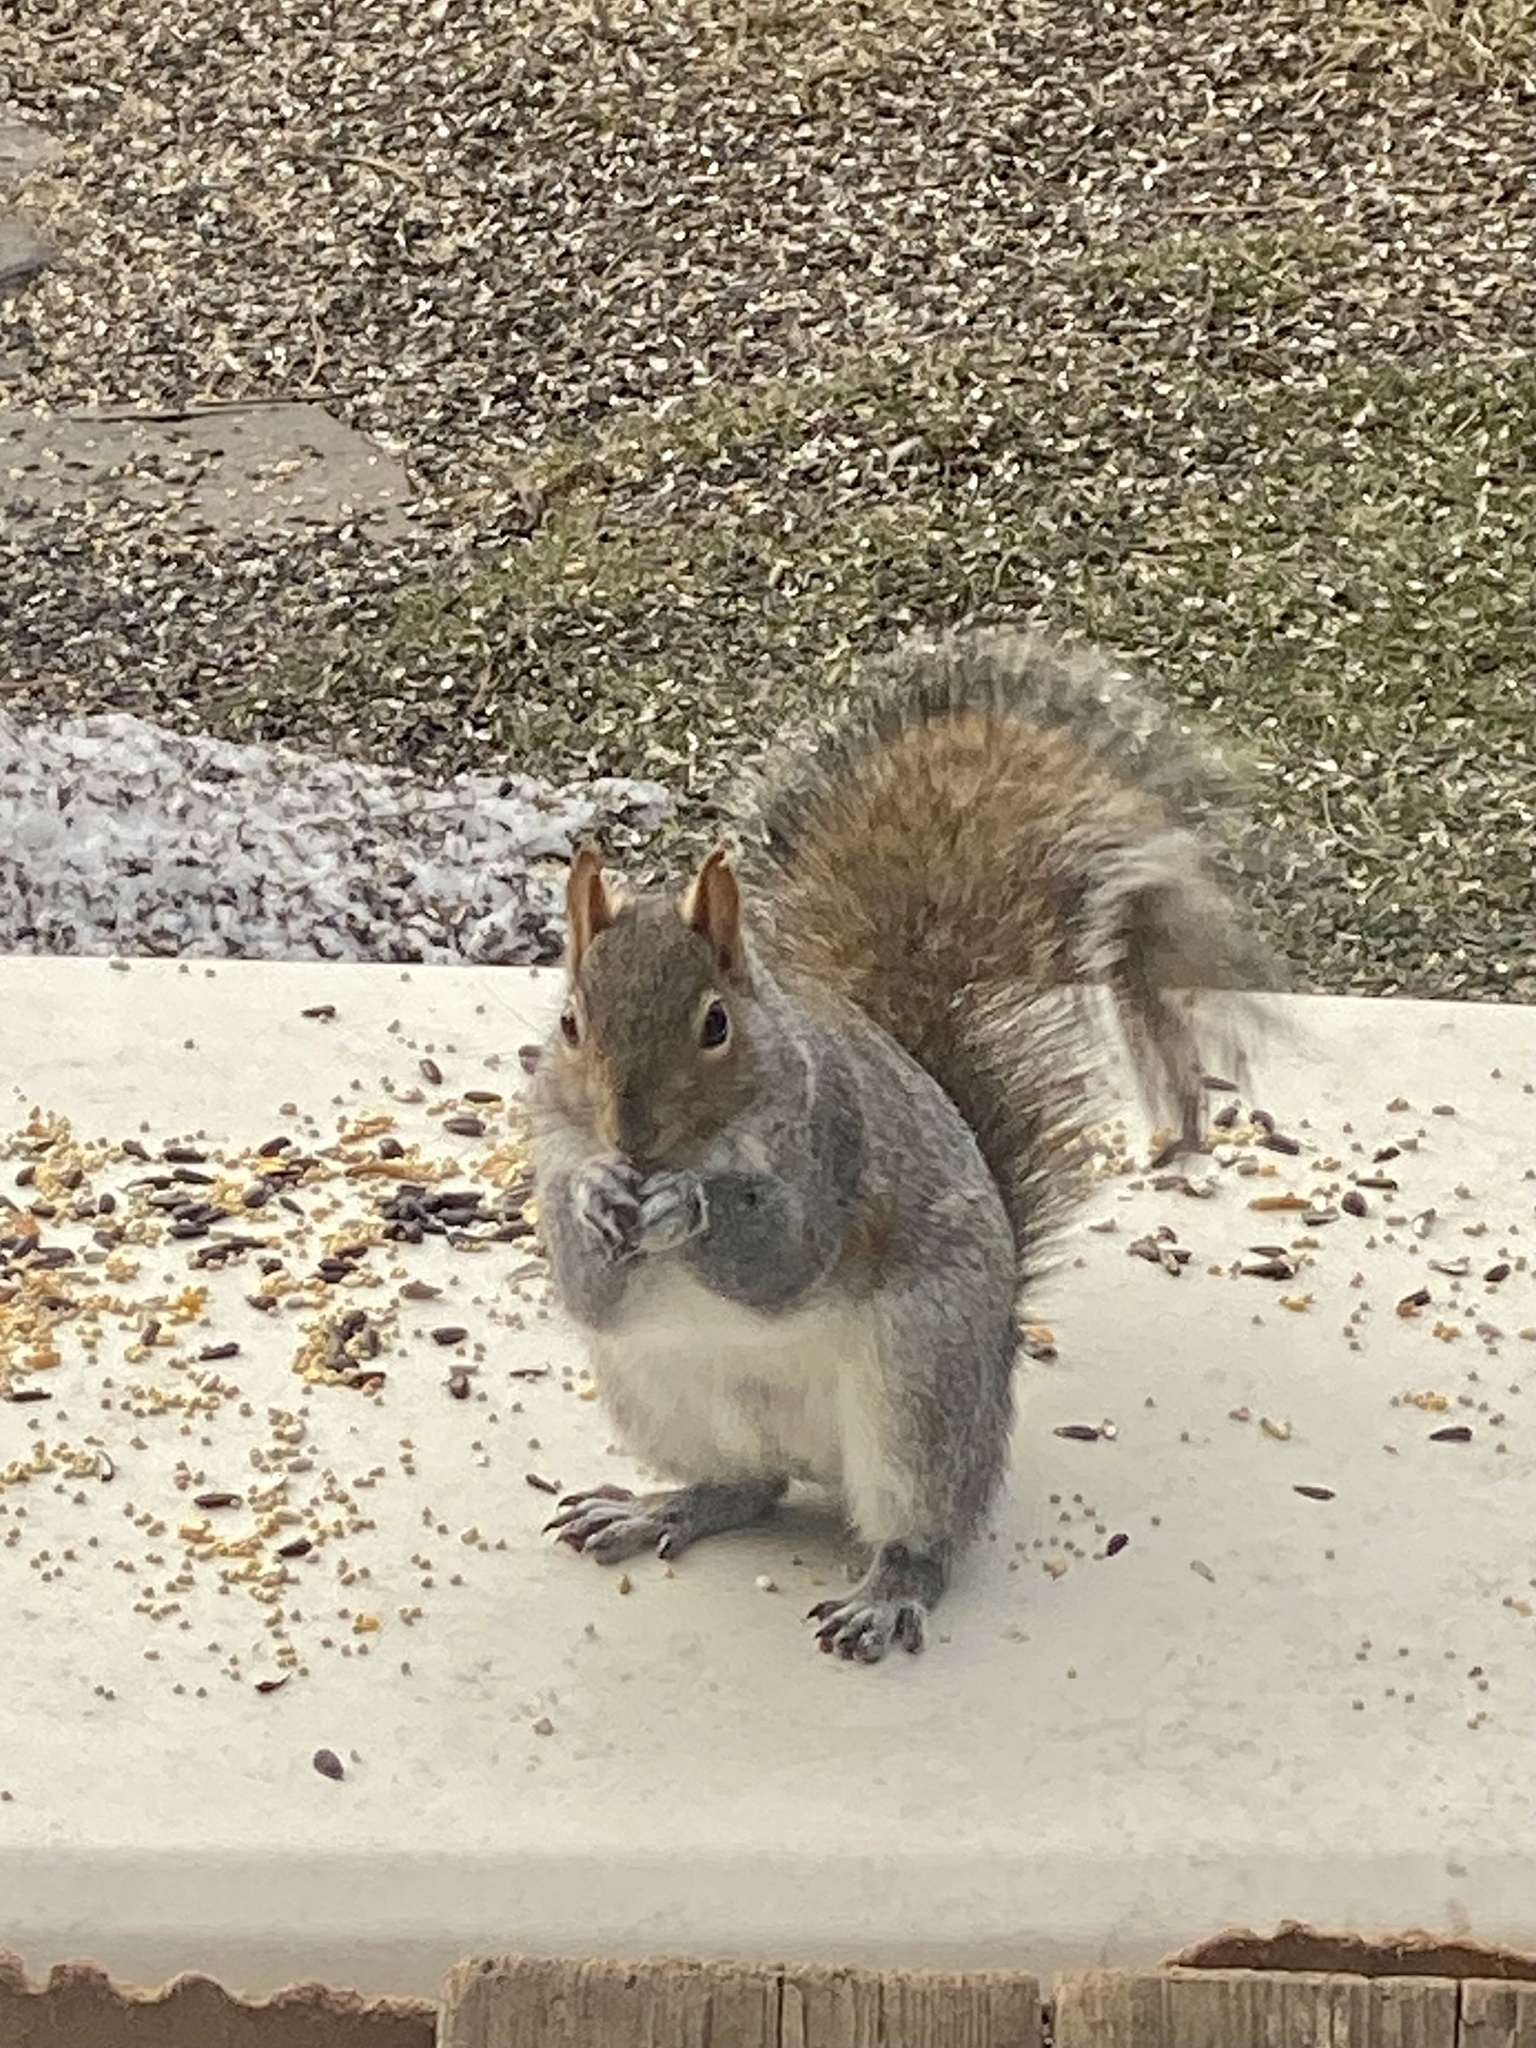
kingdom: Animalia
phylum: Chordata
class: Mammalia
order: Rodentia
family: Sciuridae
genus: Sciurus
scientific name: Sciurus carolinensis
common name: Eastern gray squirrel
